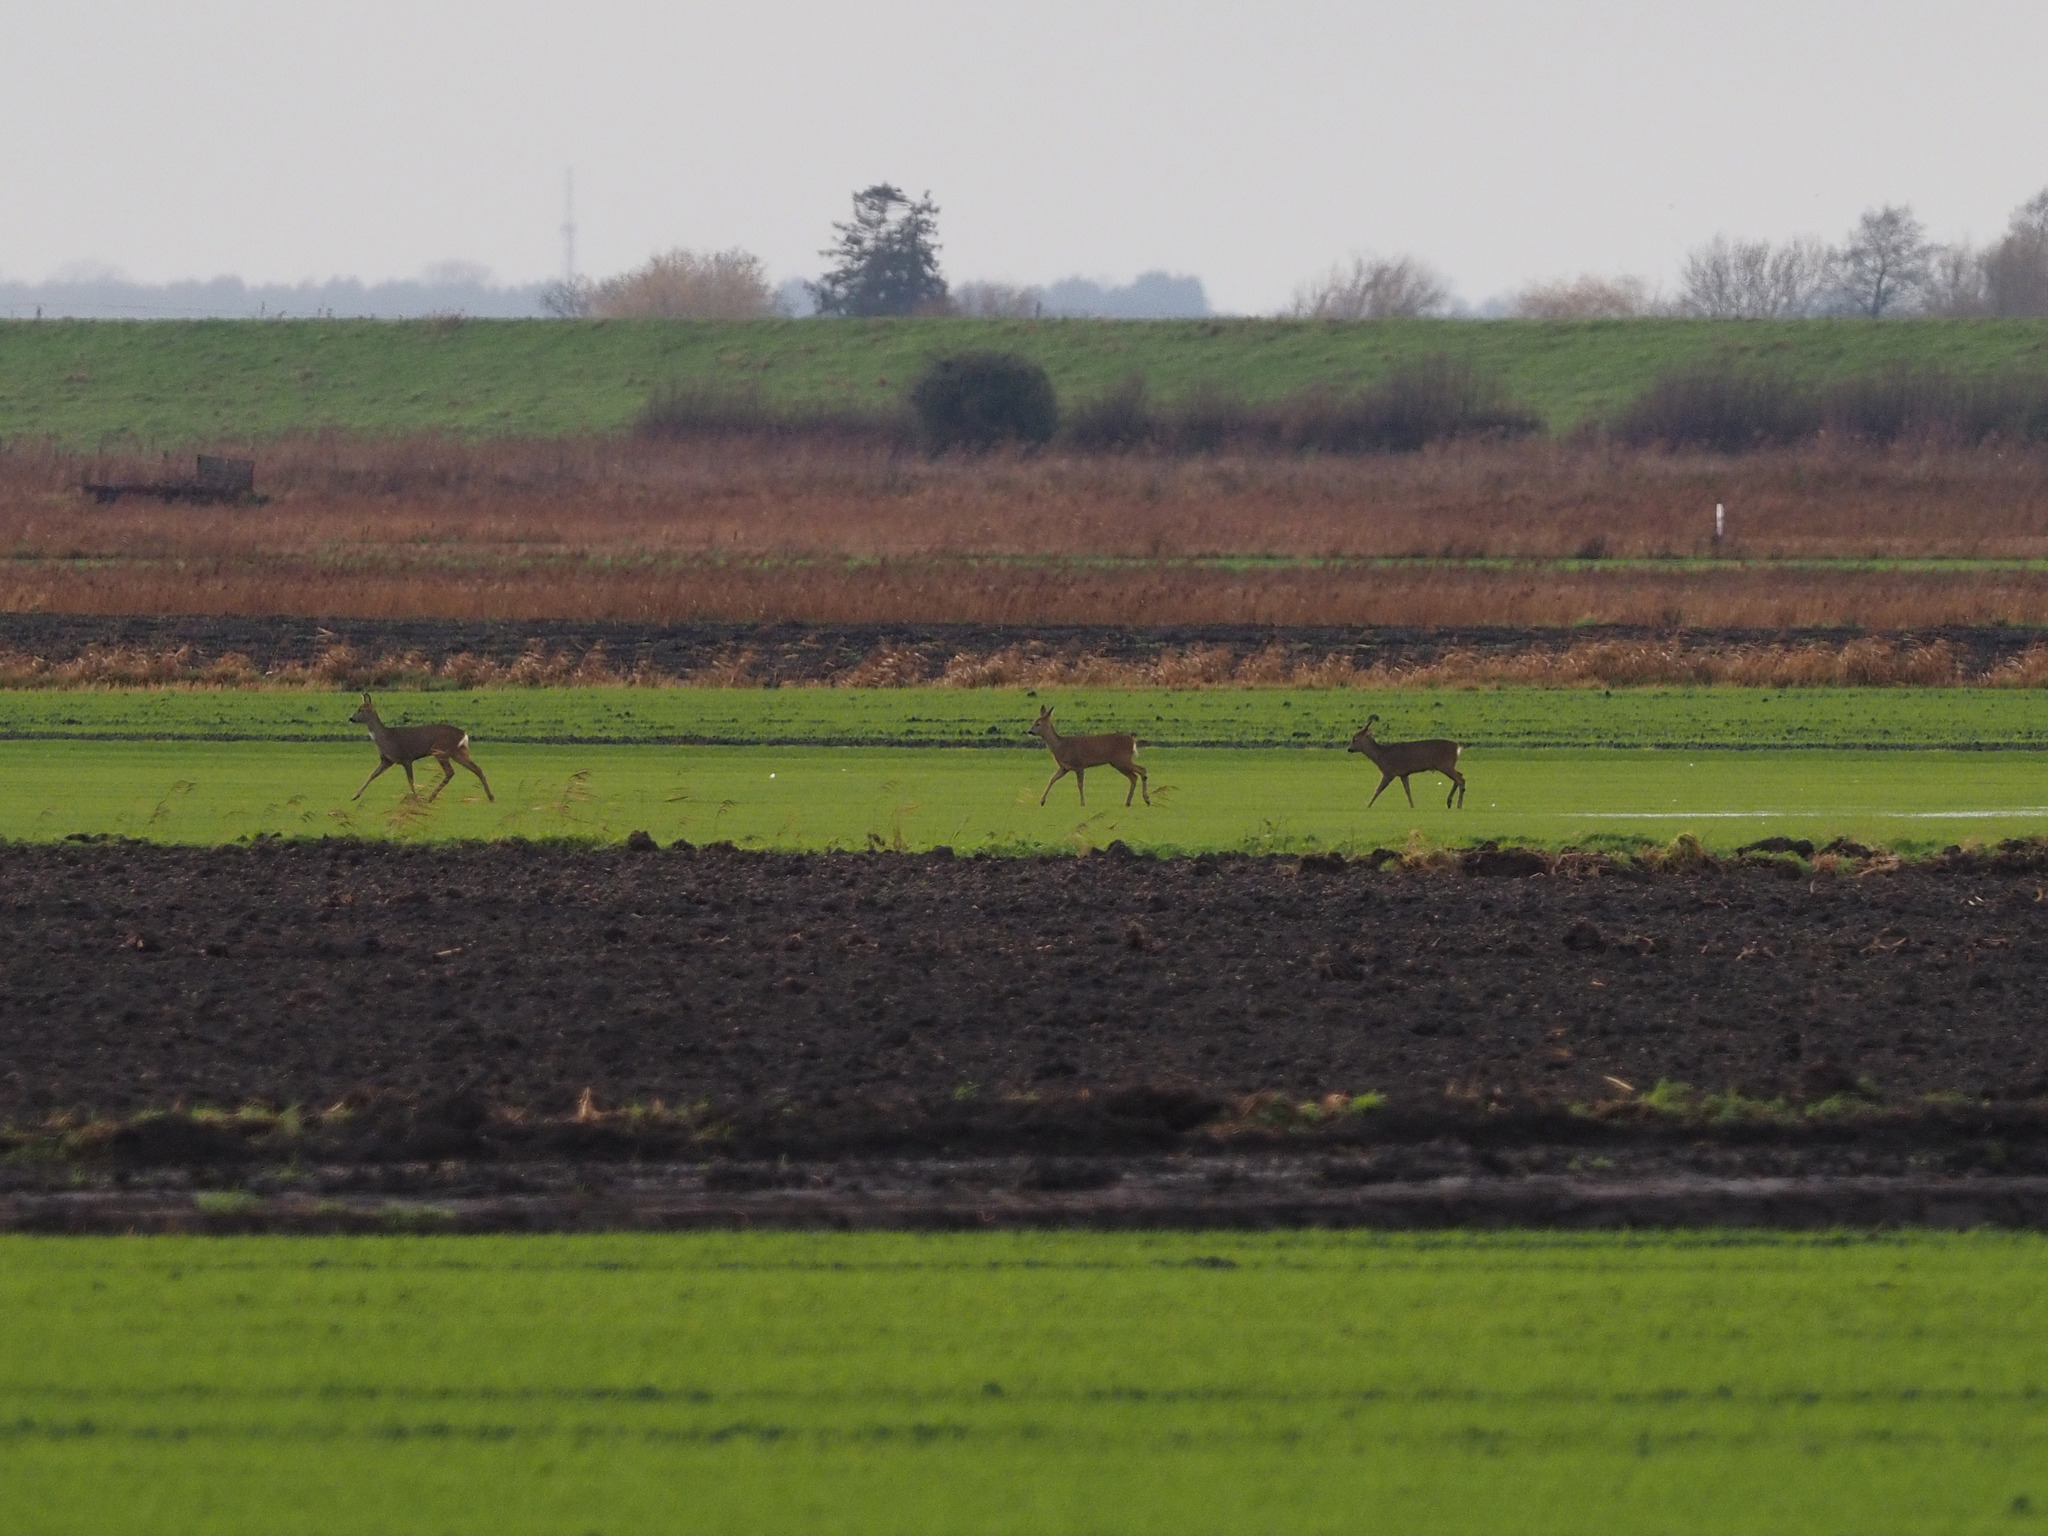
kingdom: Animalia
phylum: Chordata
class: Mammalia
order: Artiodactyla
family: Cervidae
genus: Capreolus
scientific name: Capreolus capreolus
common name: Western roe deer
